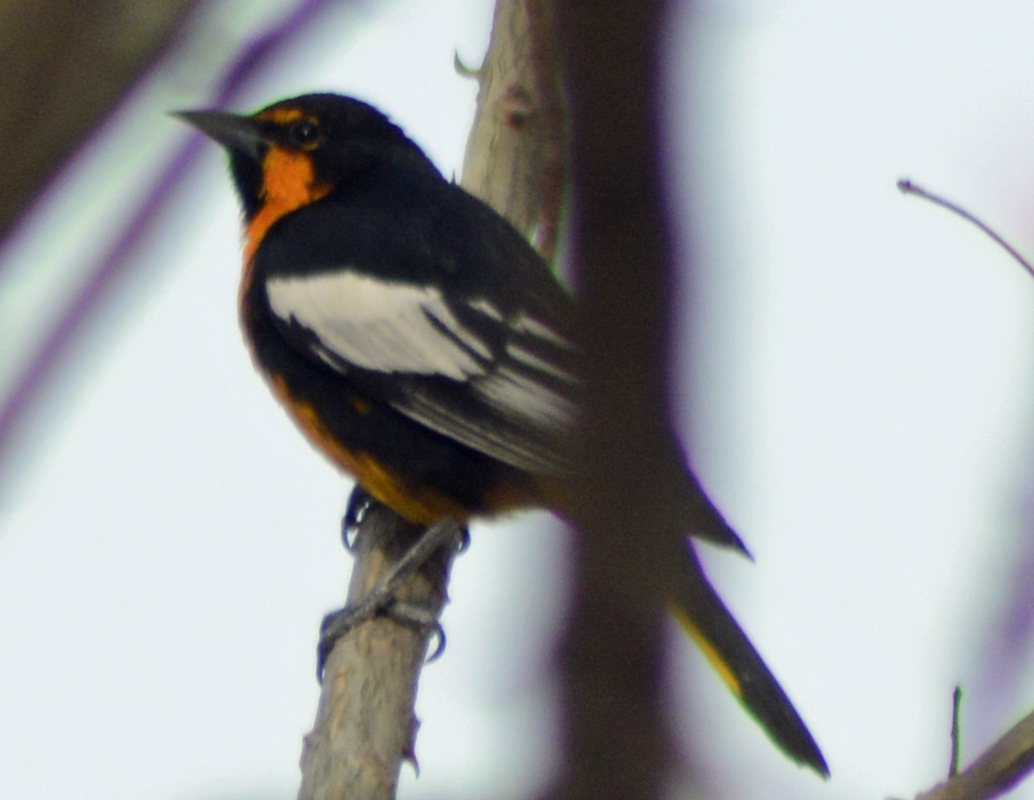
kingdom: Animalia
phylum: Chordata
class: Aves
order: Passeriformes
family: Icteridae
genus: Icterus
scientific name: Icterus abeillei
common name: Black-backed oriole
